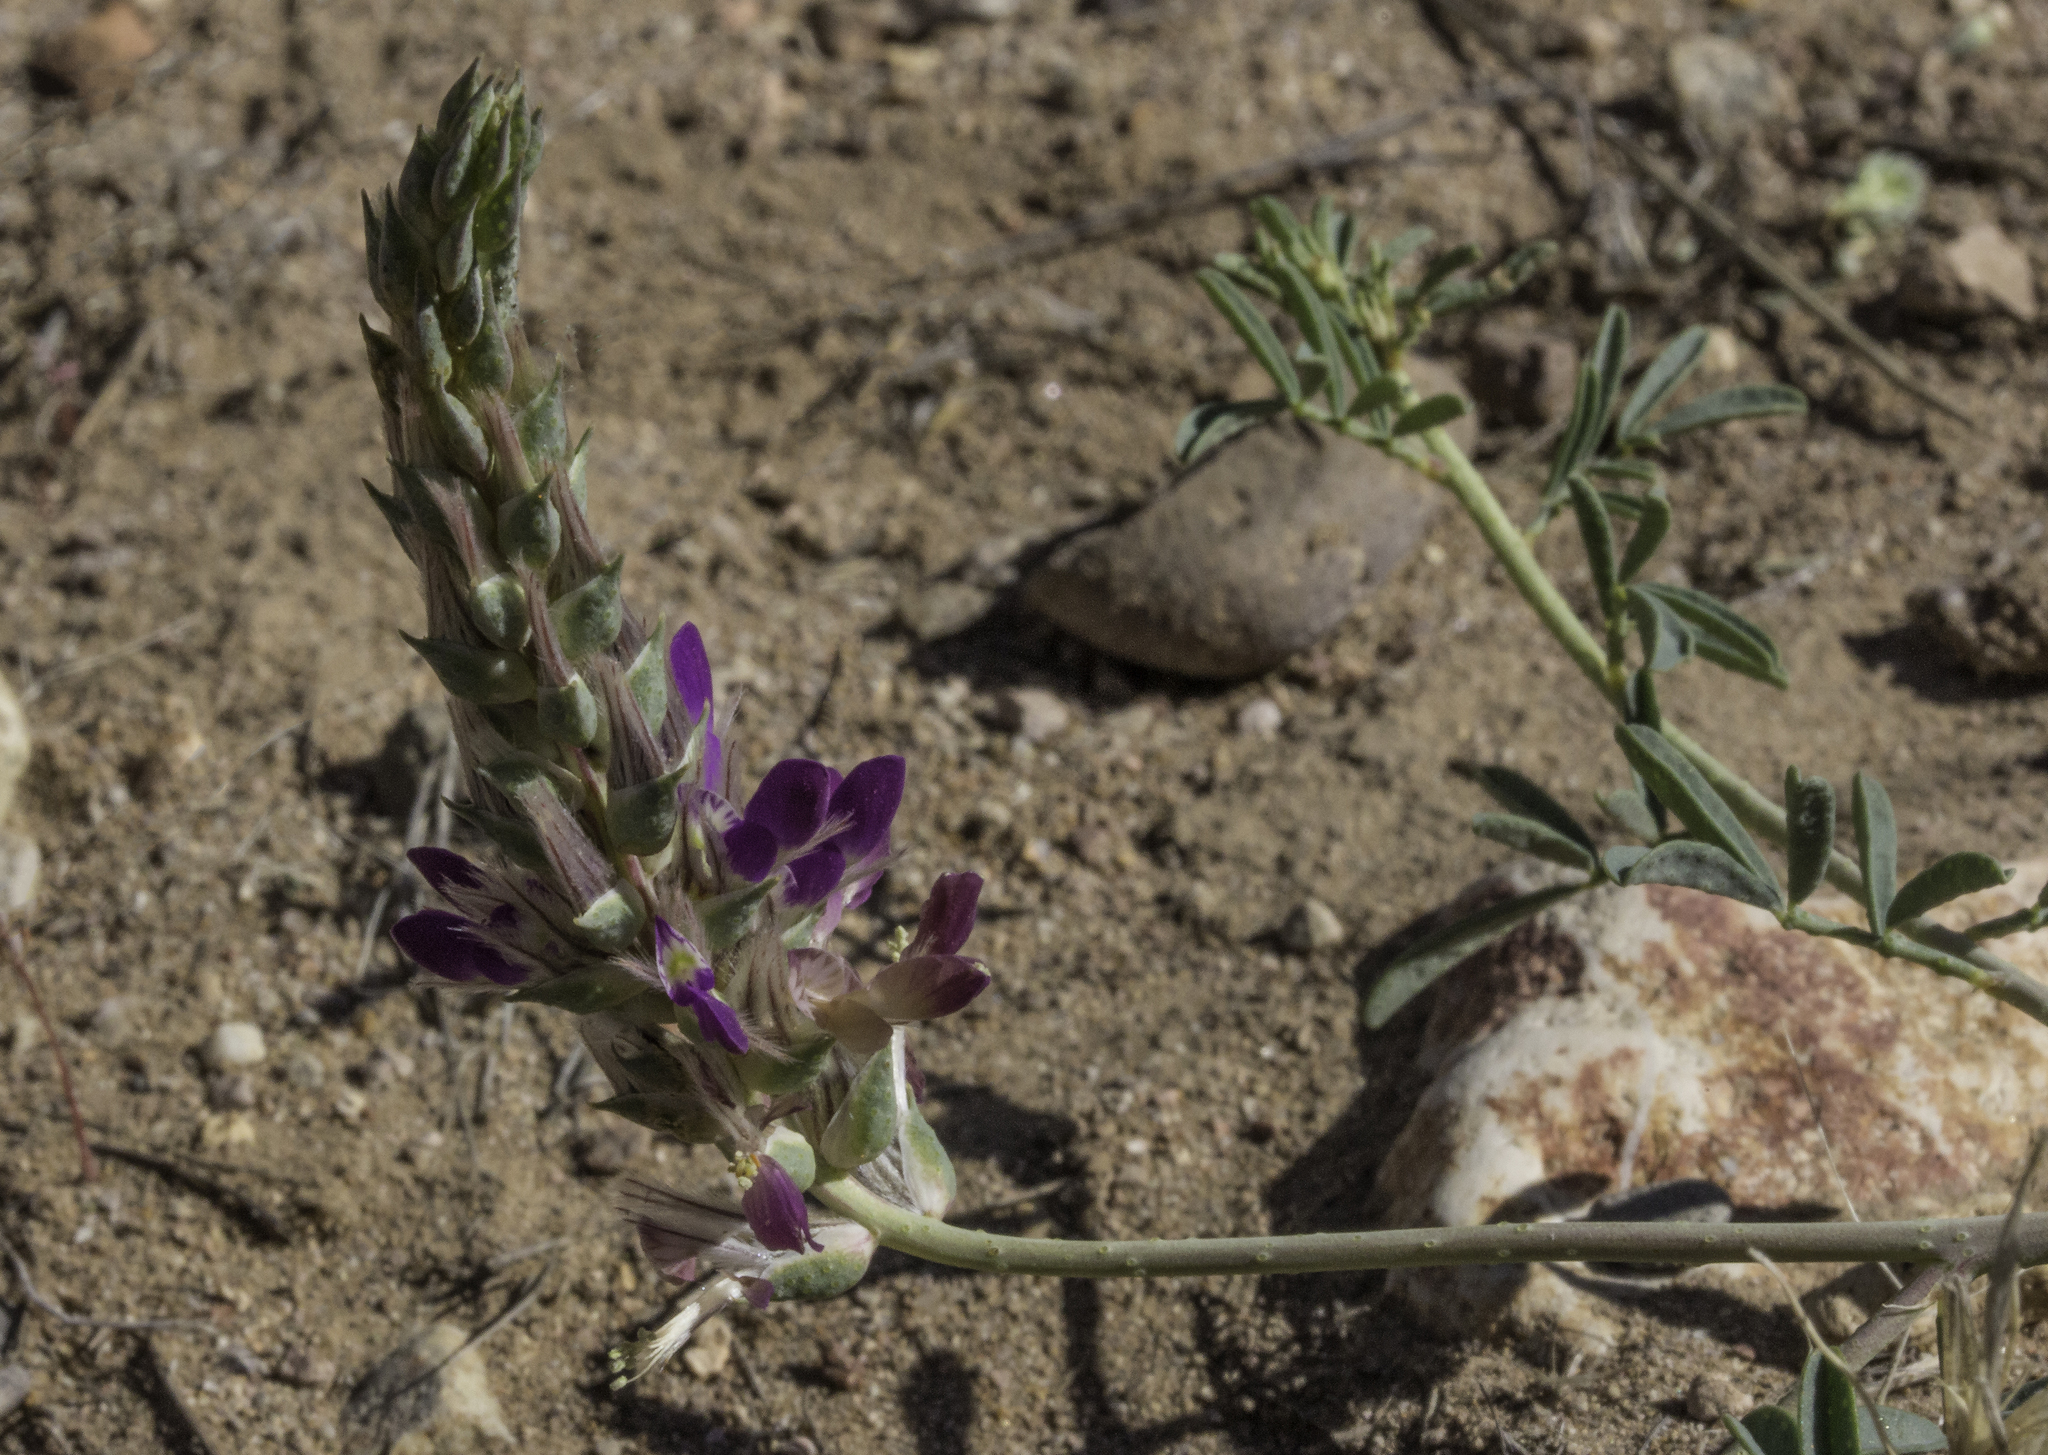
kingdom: Plantae
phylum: Tracheophyta
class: Magnoliopsida
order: Fabales
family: Fabaceae
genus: Dalea
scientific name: Dalea pogonathera
